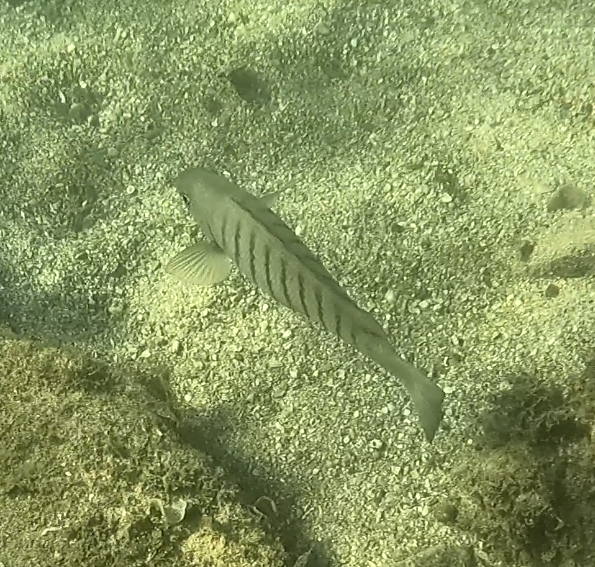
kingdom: Animalia
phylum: Chordata
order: Perciformes
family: Kyphosidae
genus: Girella
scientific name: Girella tricuspidata
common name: Parore
